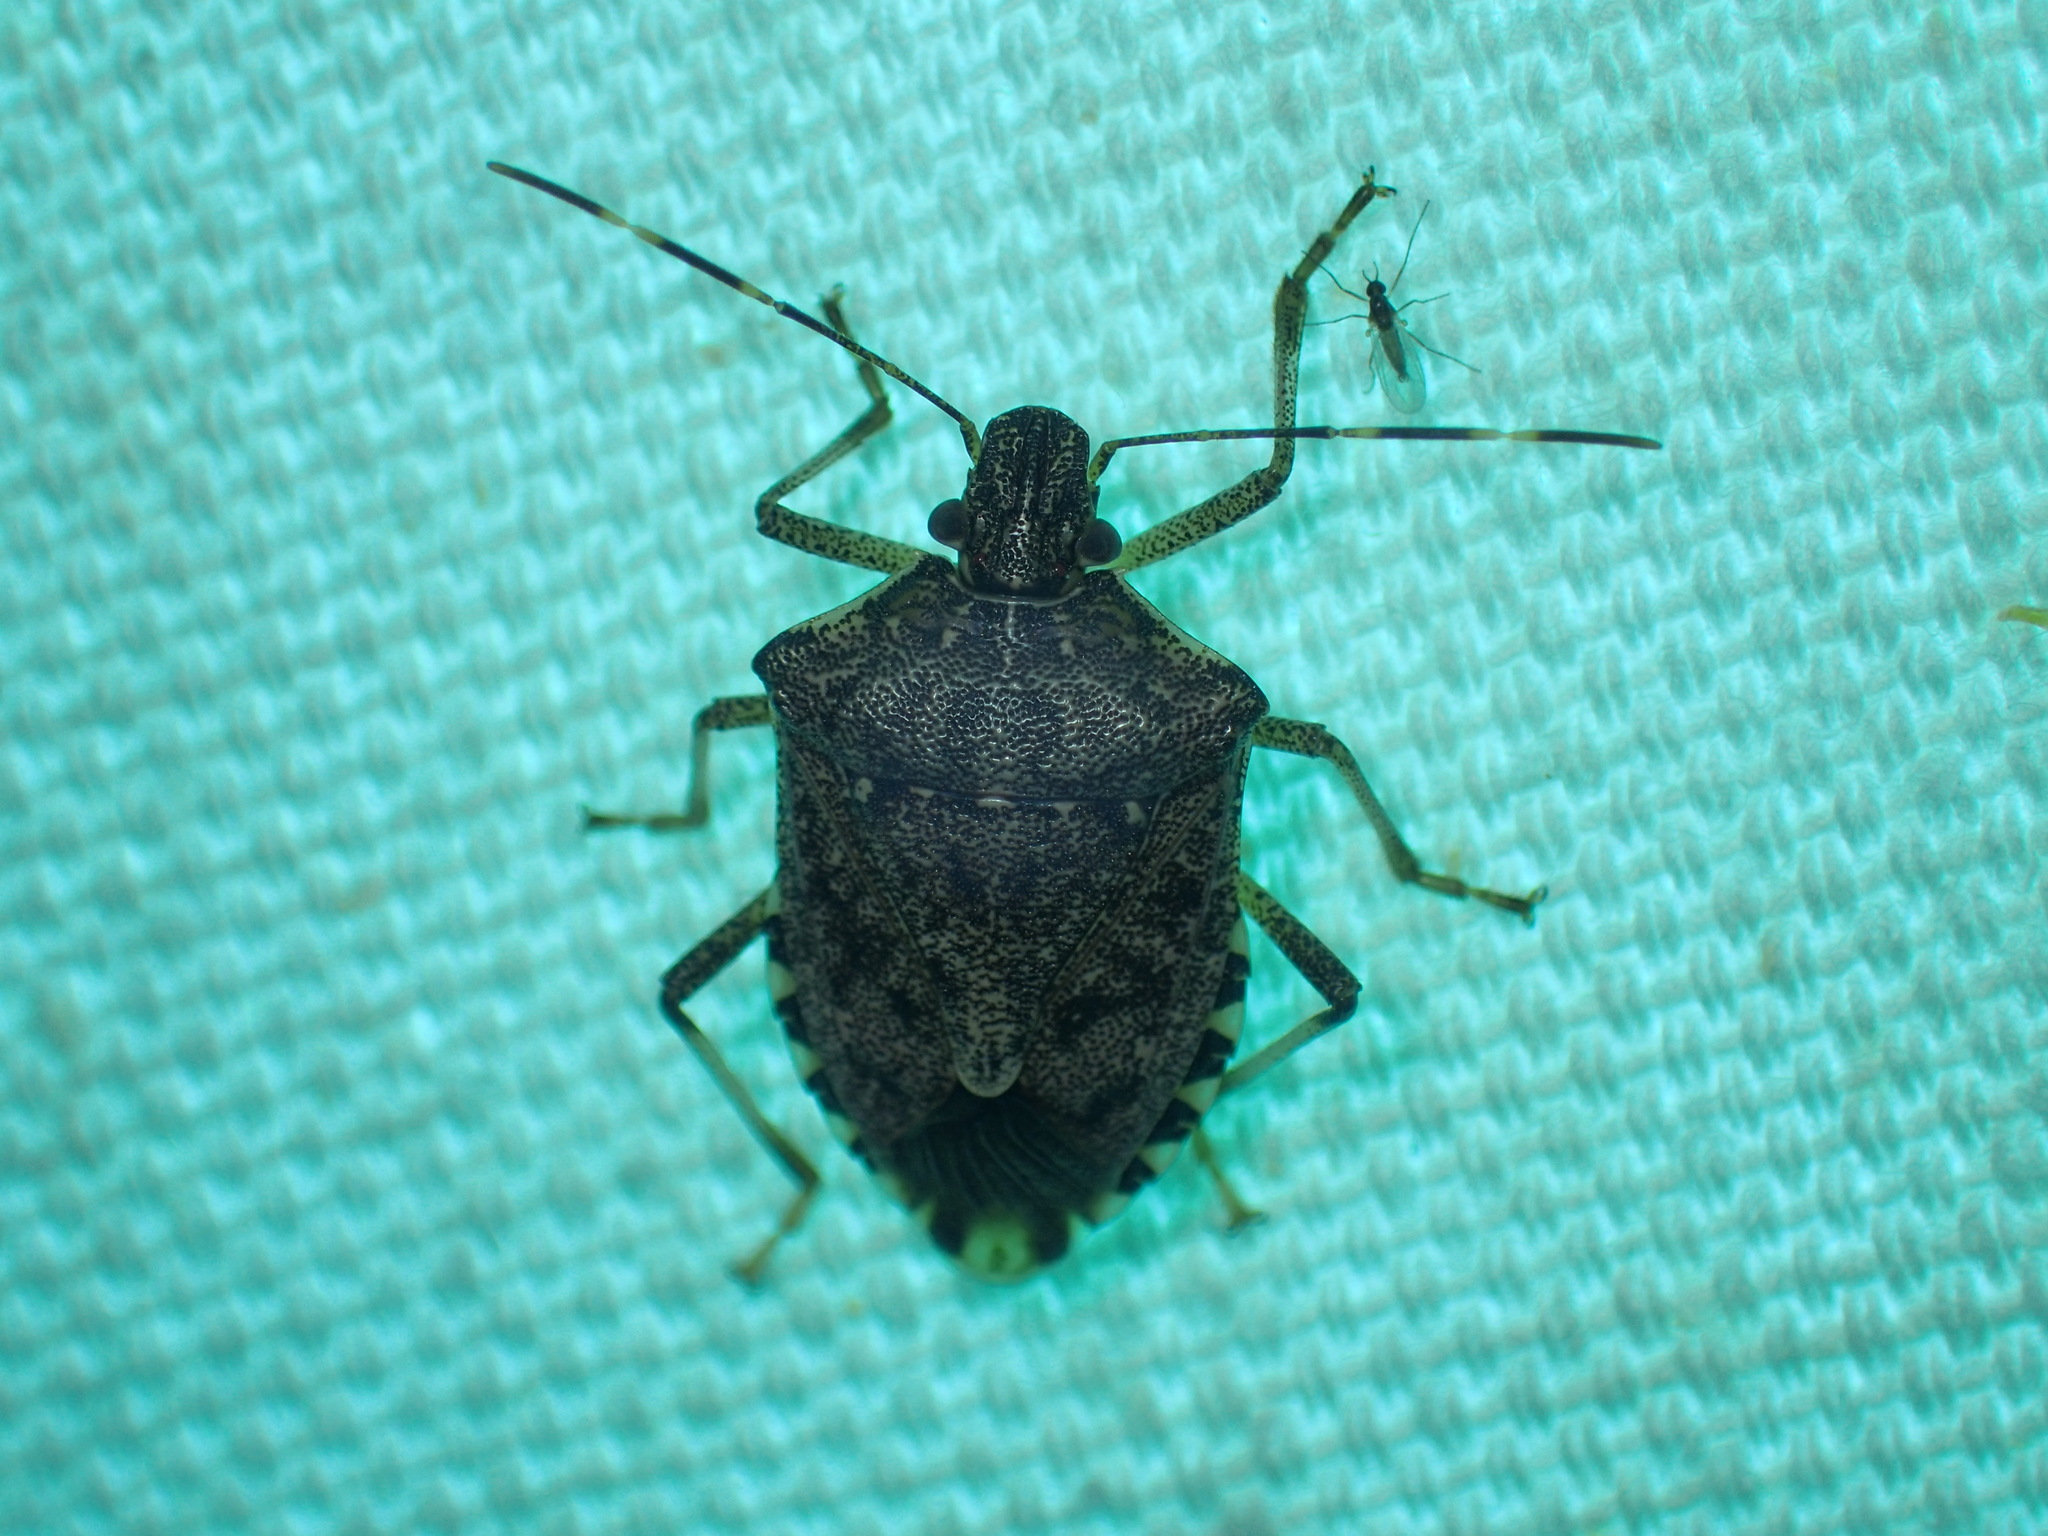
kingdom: Animalia
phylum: Arthropoda
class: Insecta
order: Hemiptera
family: Pentatomidae
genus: Halyomorpha
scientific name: Halyomorpha halys
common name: Brown marmorated stink bug
